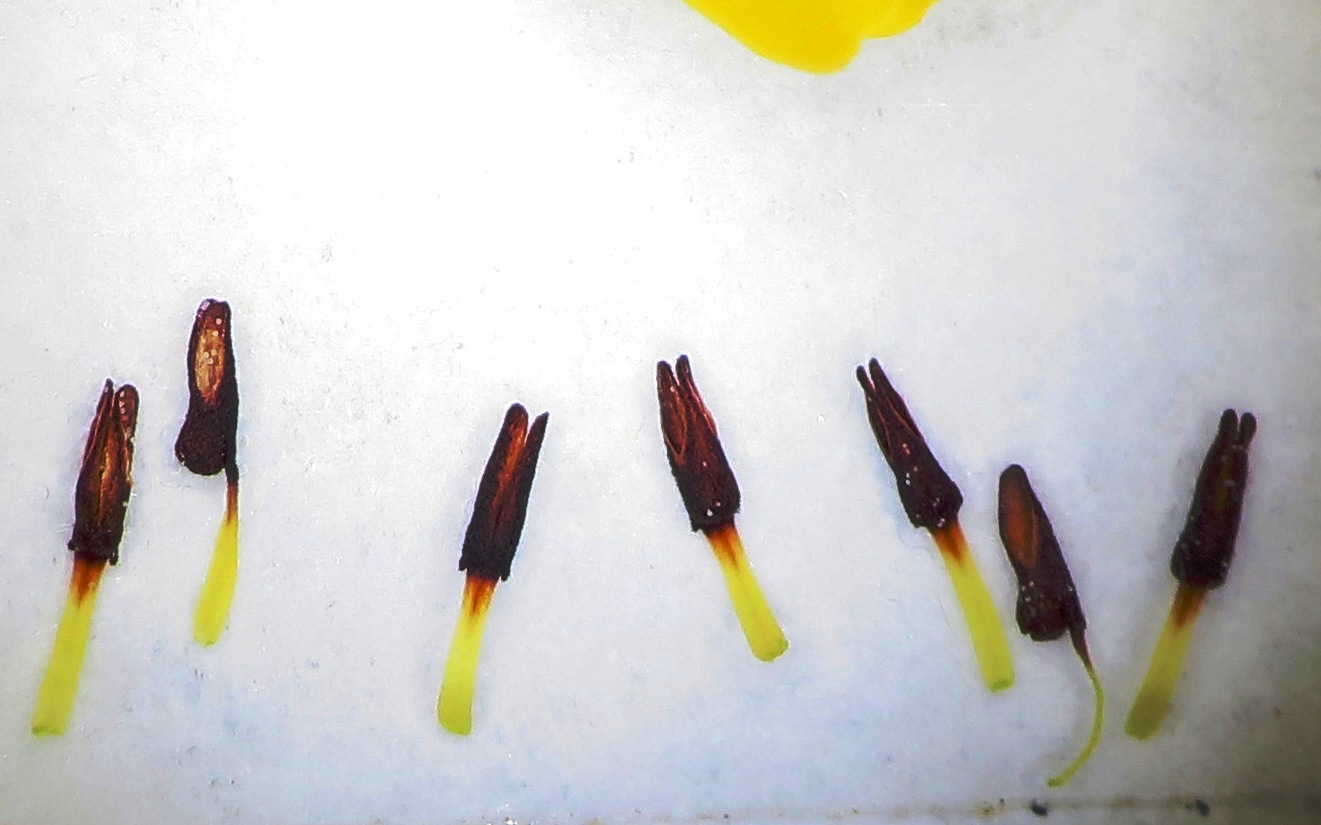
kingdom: Plantae
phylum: Tracheophyta
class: Magnoliopsida
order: Ericales
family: Ericaceae
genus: Erica
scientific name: Erica campanularis
